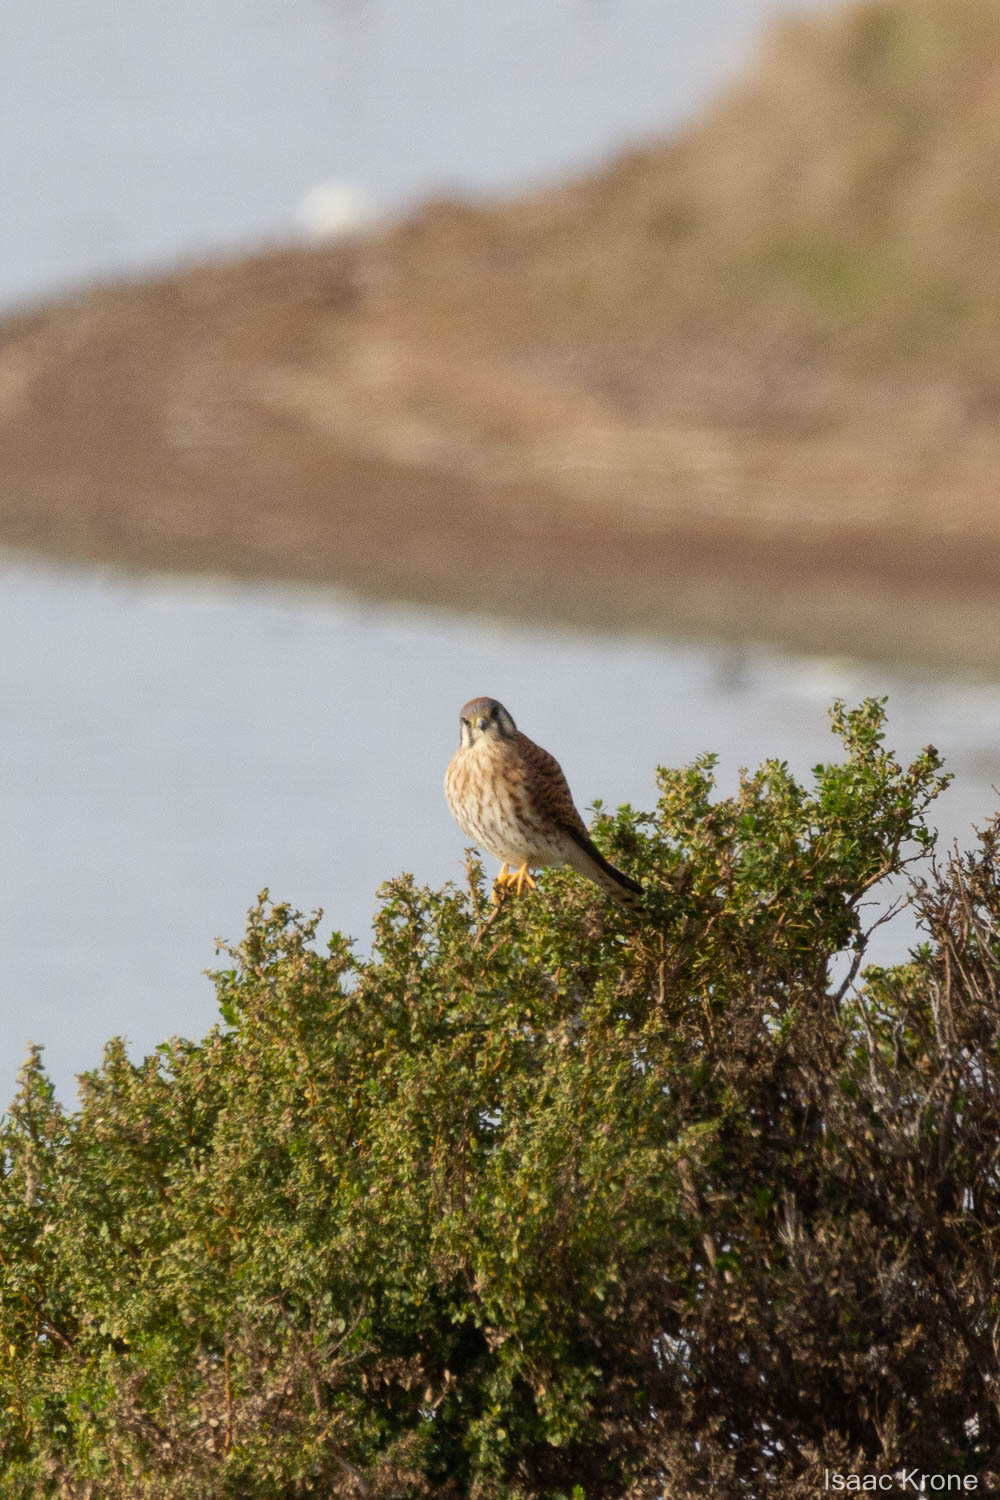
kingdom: Animalia
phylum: Chordata
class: Aves
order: Falconiformes
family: Falconidae
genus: Falco
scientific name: Falco sparverius
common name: American kestrel
